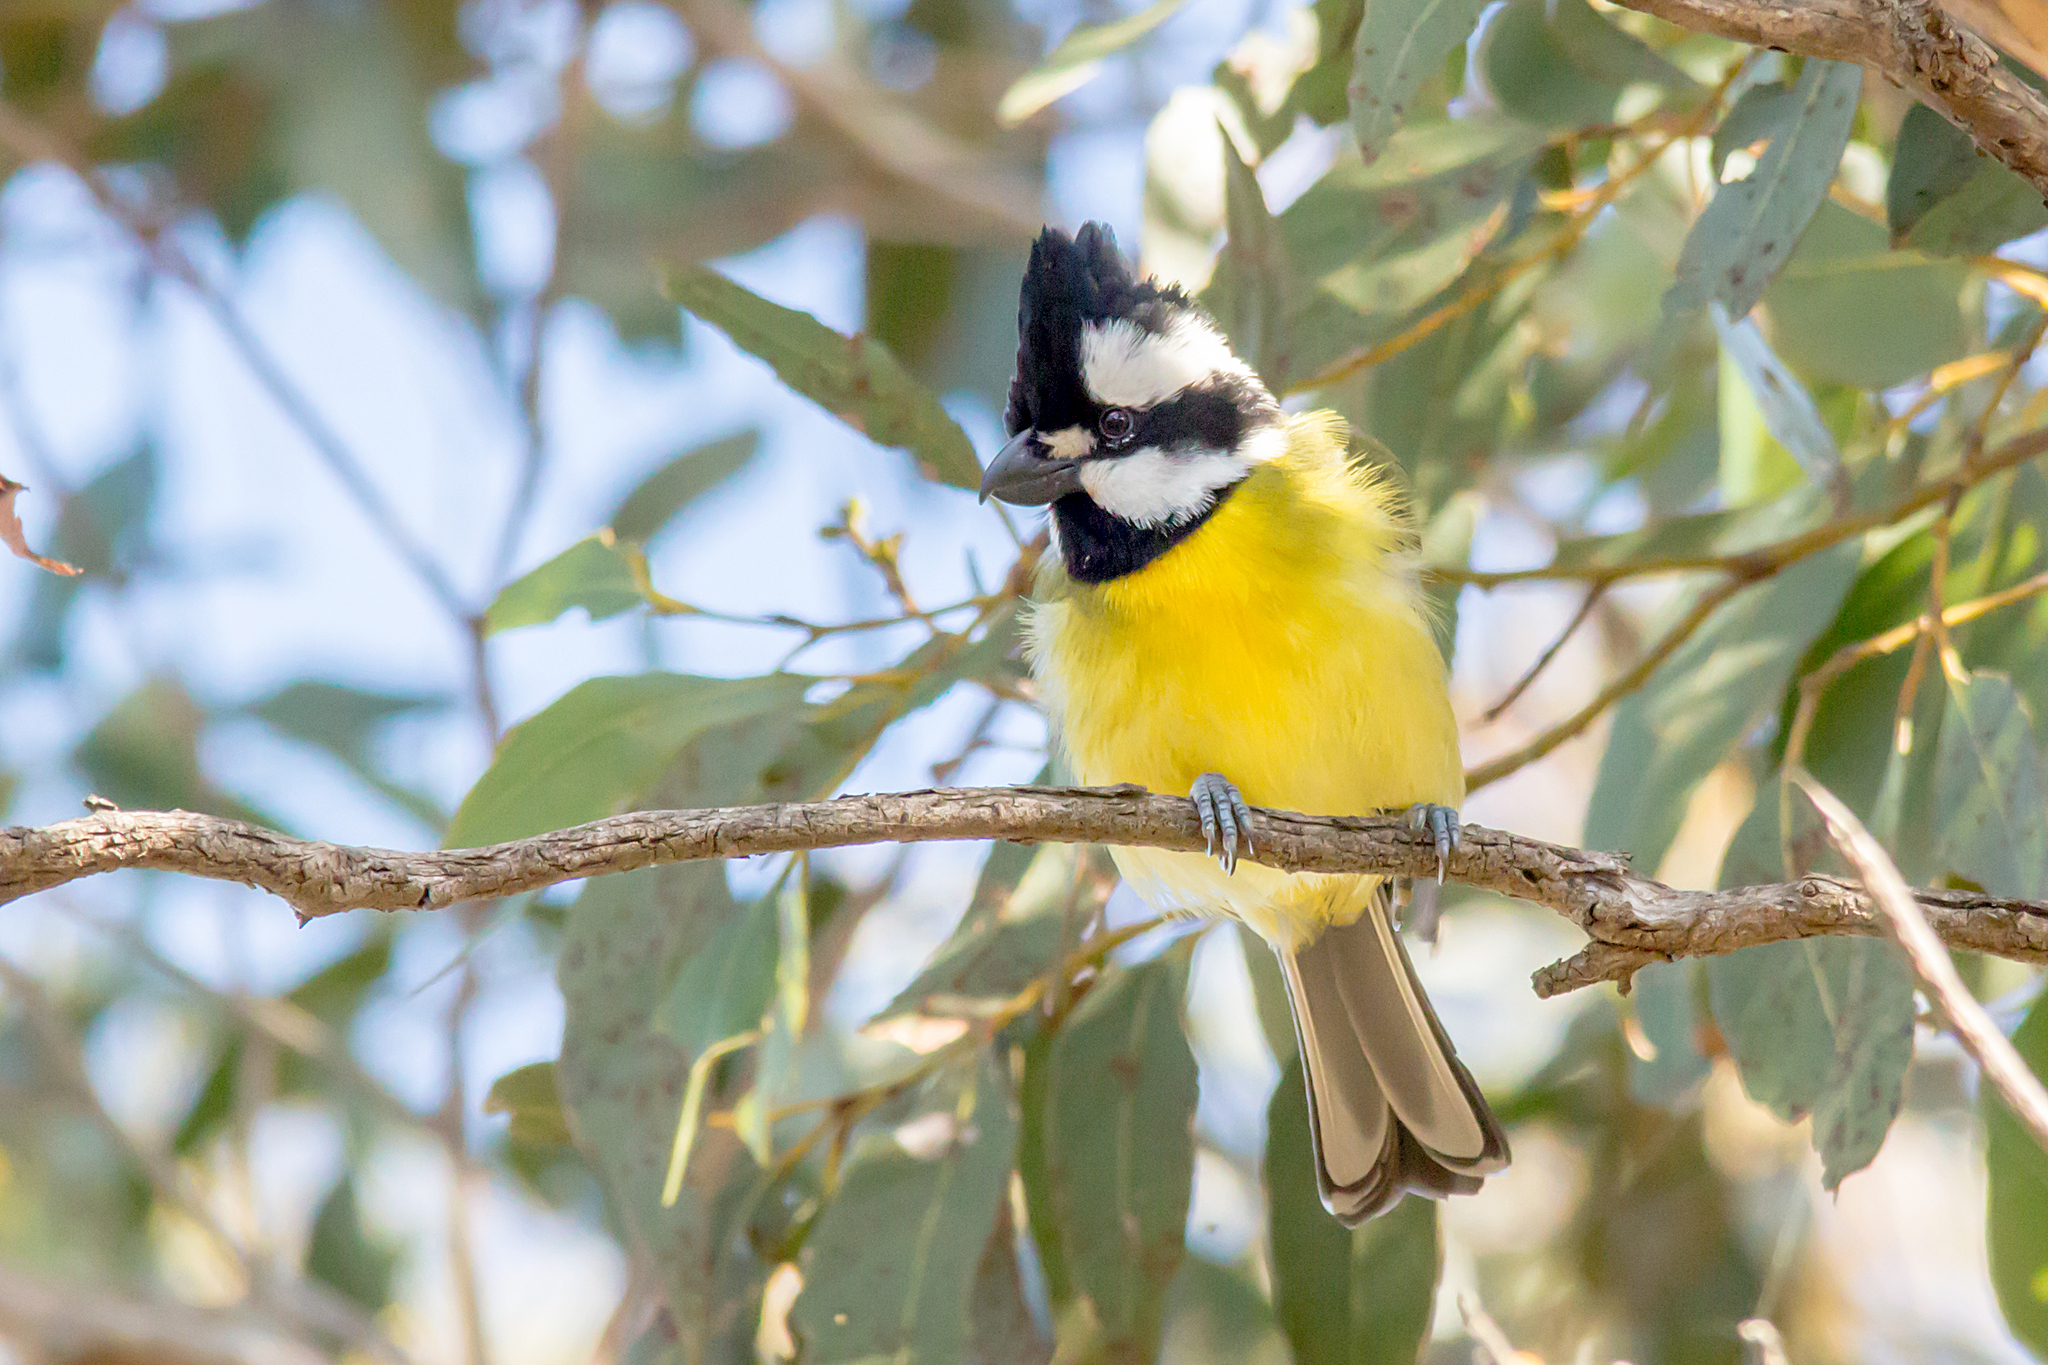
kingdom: Animalia
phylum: Chordata
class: Aves
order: Passeriformes
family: Pachycephalidae
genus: Falcunculus
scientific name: Falcunculus frontatus
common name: Crested shriketit
